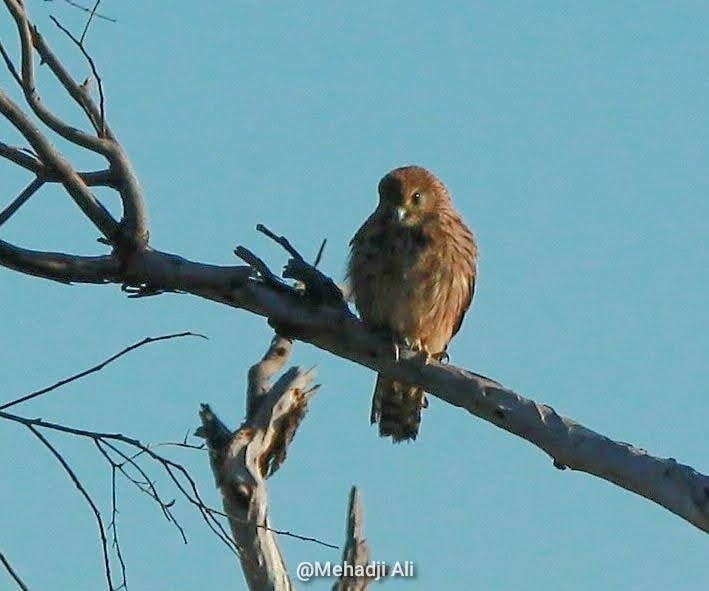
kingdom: Animalia
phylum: Chordata
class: Aves
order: Falconiformes
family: Falconidae
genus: Falco
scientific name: Falco tinnunculus
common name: Common kestrel
